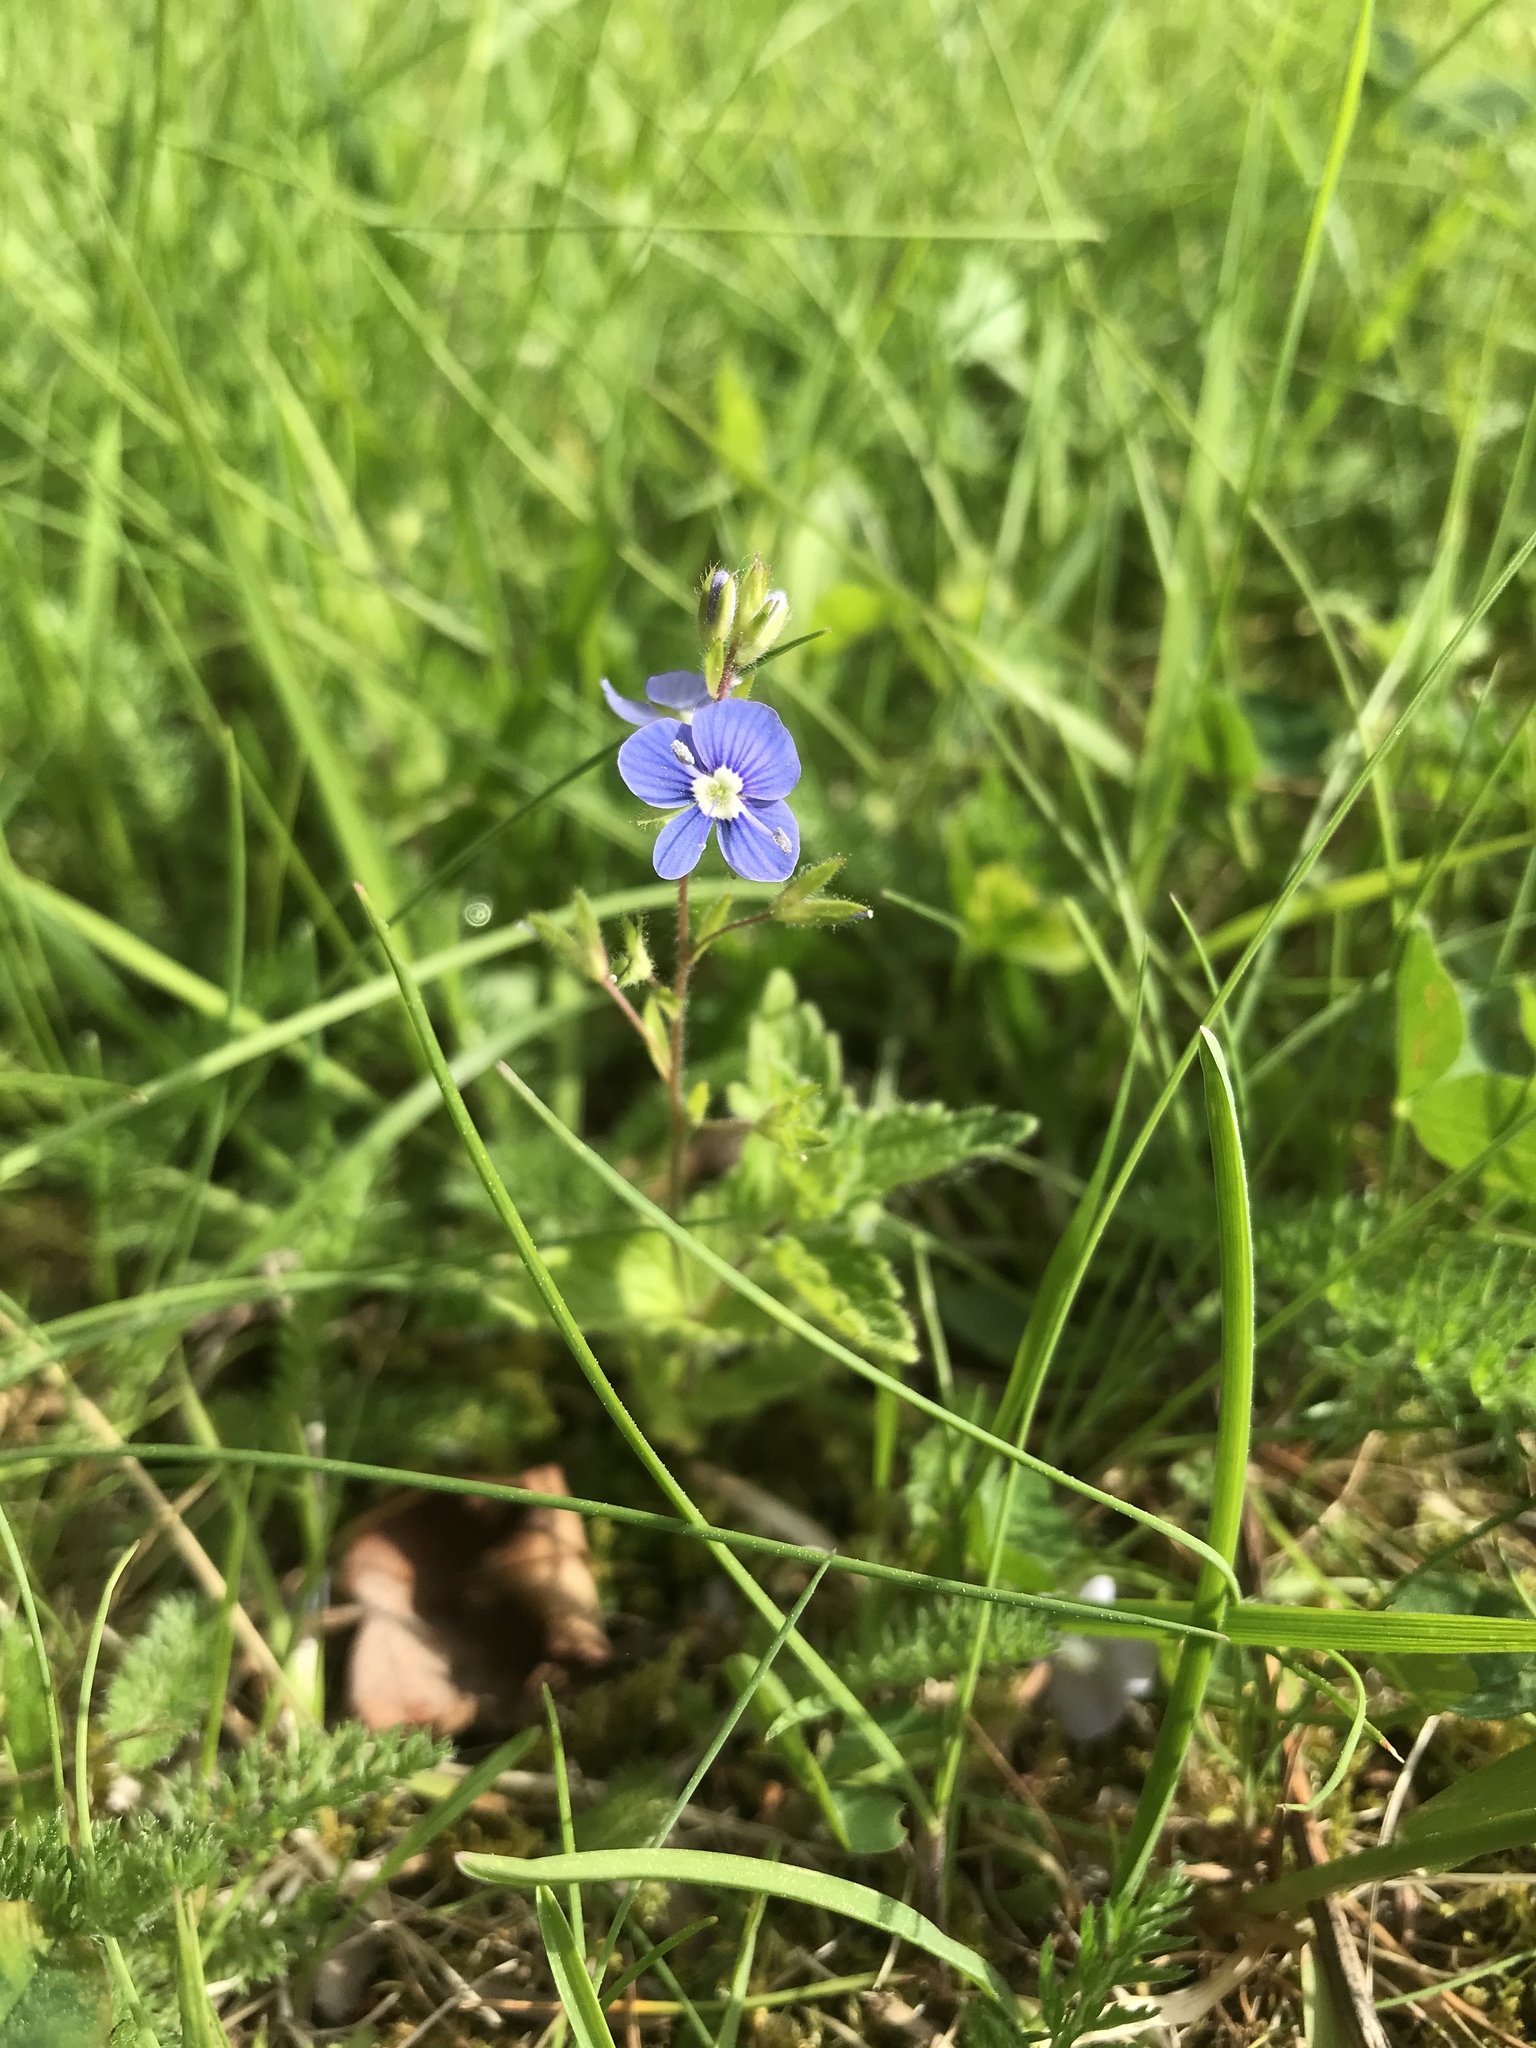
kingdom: Plantae
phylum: Tracheophyta
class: Magnoliopsida
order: Lamiales
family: Plantaginaceae
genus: Veronica
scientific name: Veronica chamaedrys
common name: Germander speedwell
